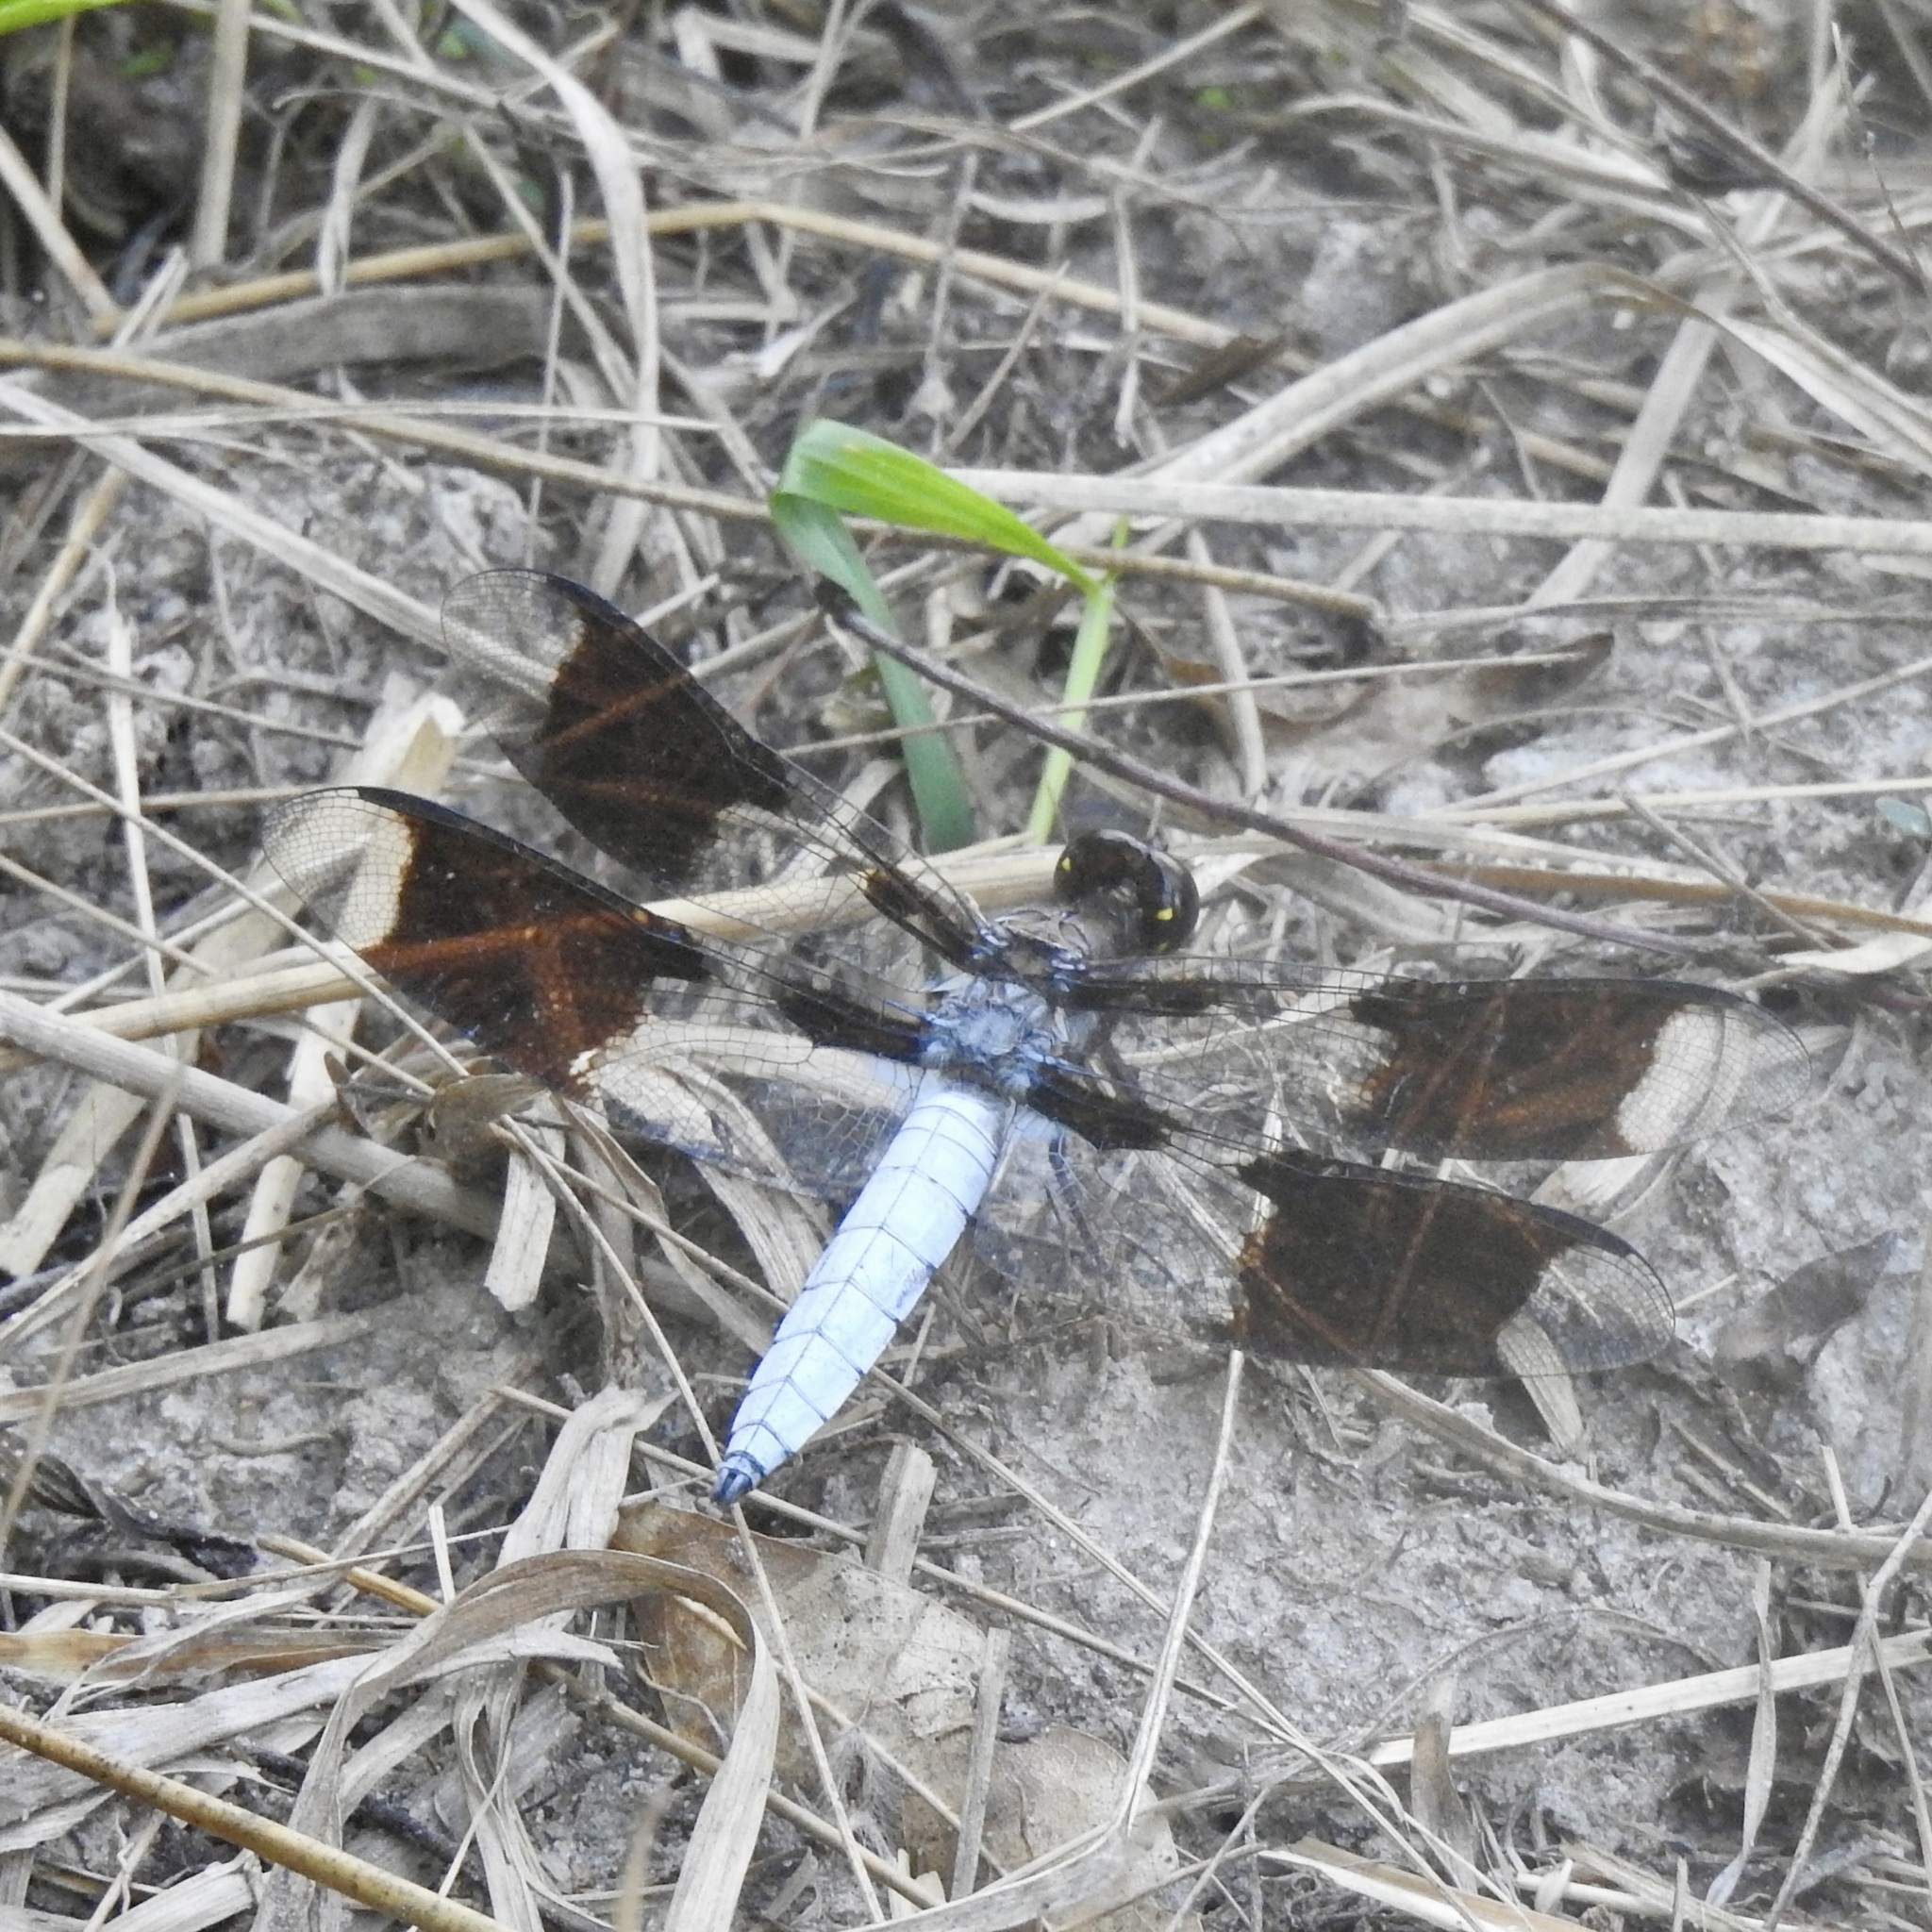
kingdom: Animalia
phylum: Arthropoda
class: Insecta
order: Odonata
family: Libellulidae
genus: Plathemis
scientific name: Plathemis lydia
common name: Common whitetail
